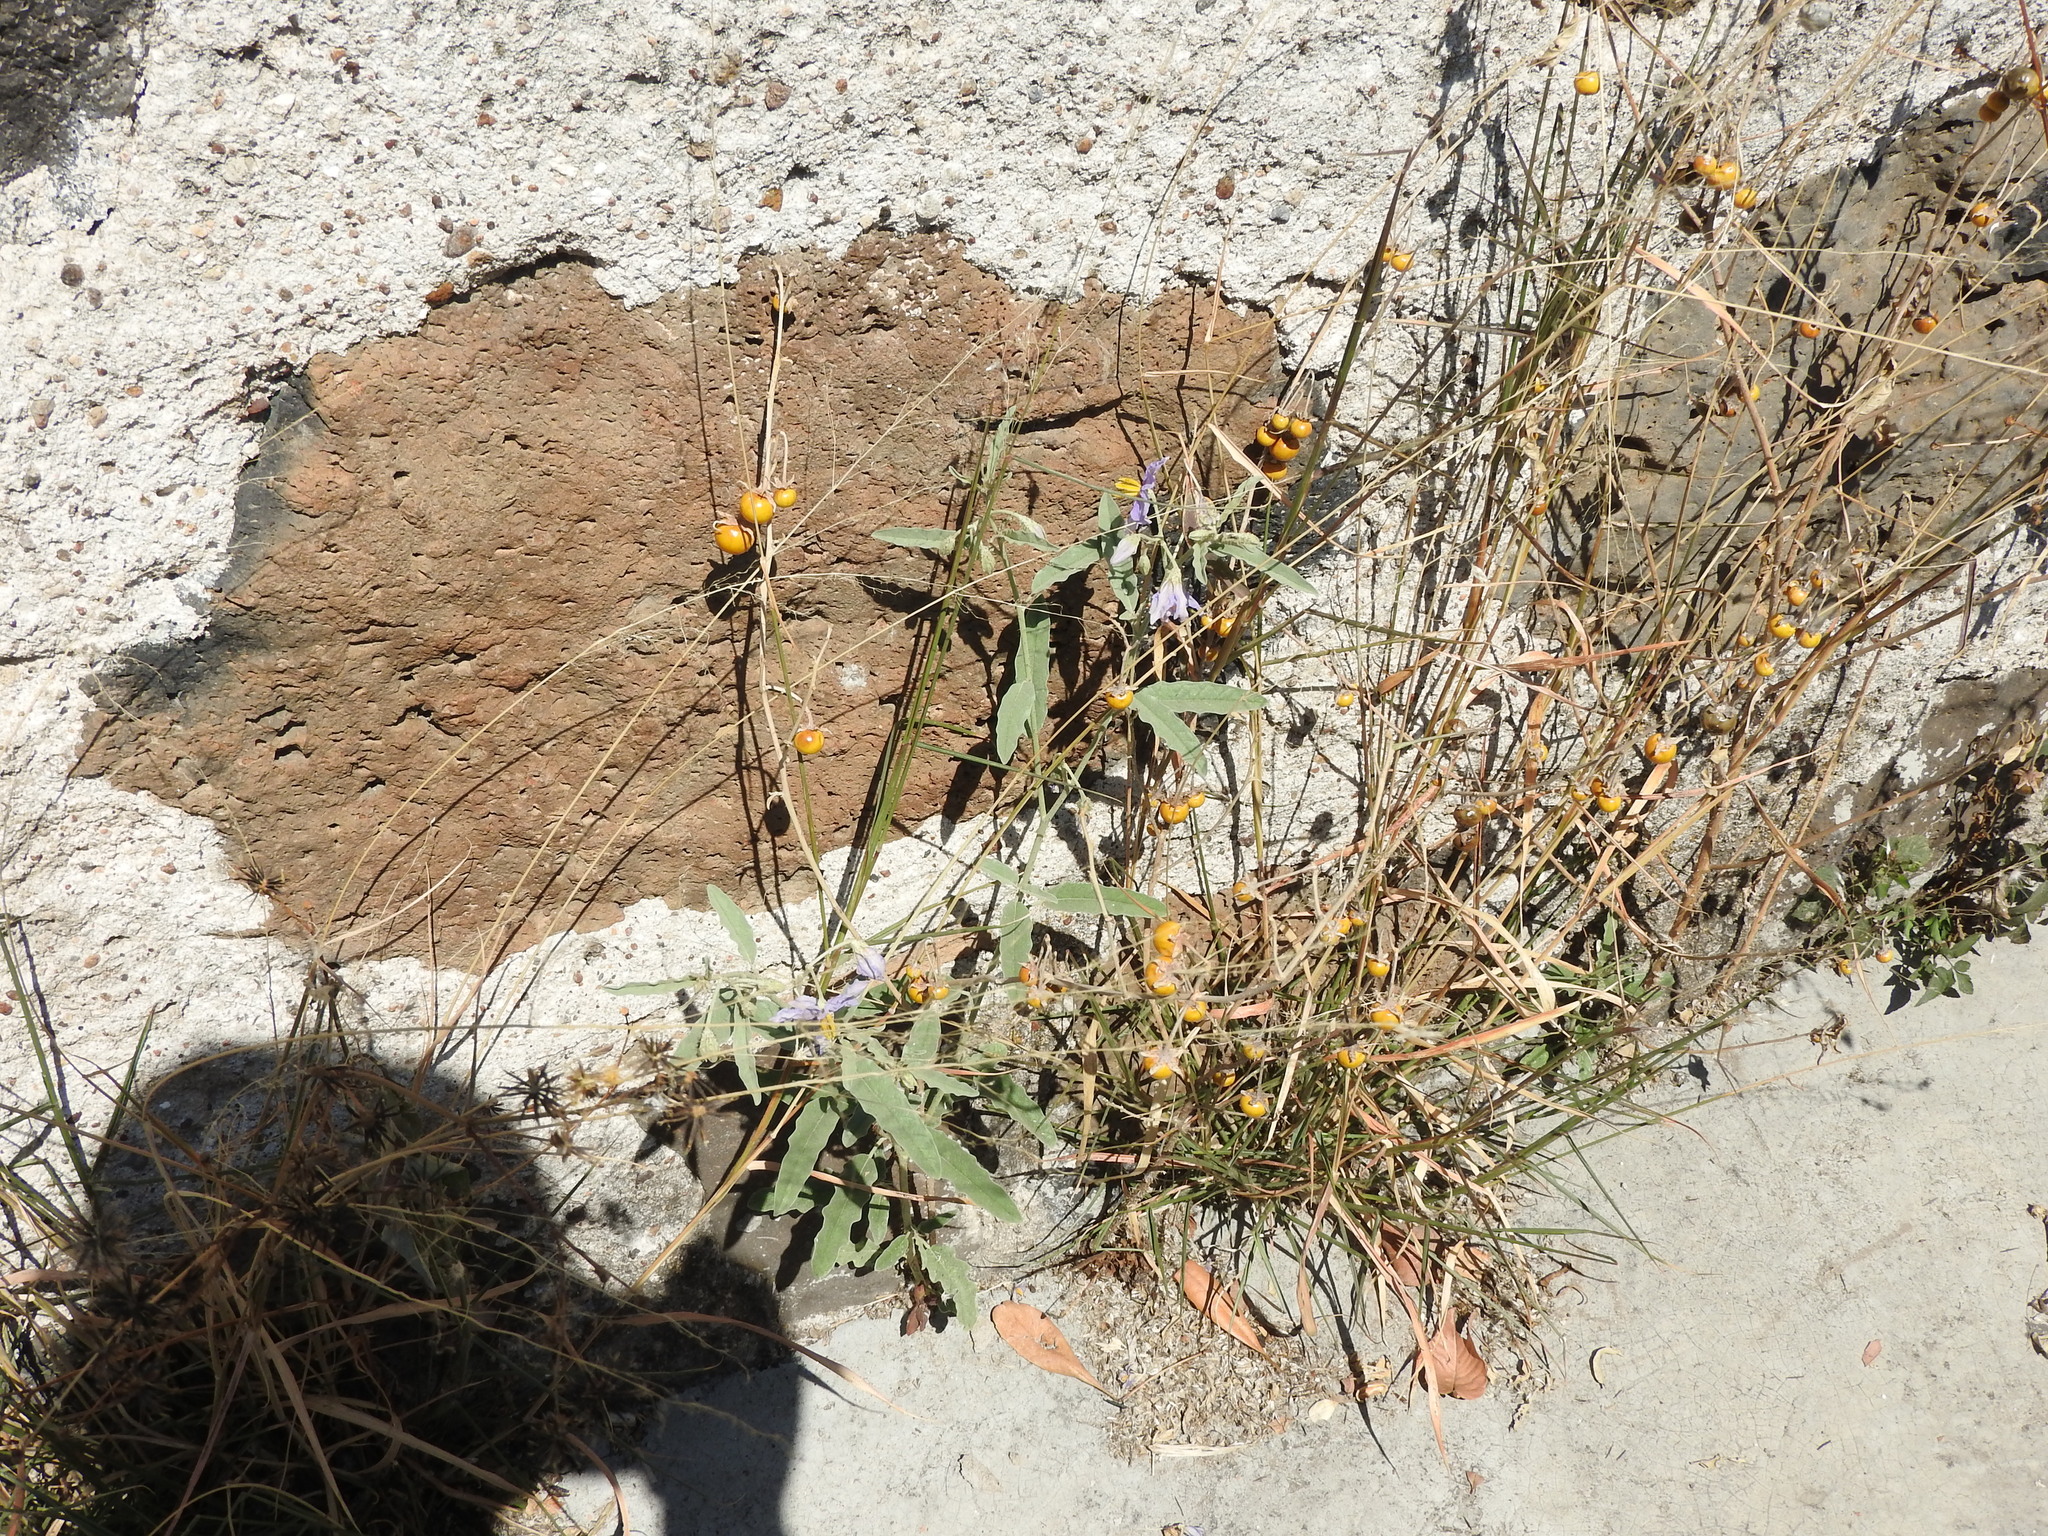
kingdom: Plantae
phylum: Tracheophyta
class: Magnoliopsida
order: Solanales
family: Solanaceae
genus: Solanum
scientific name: Solanum elaeagnifolium
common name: Silverleaf nightshade
